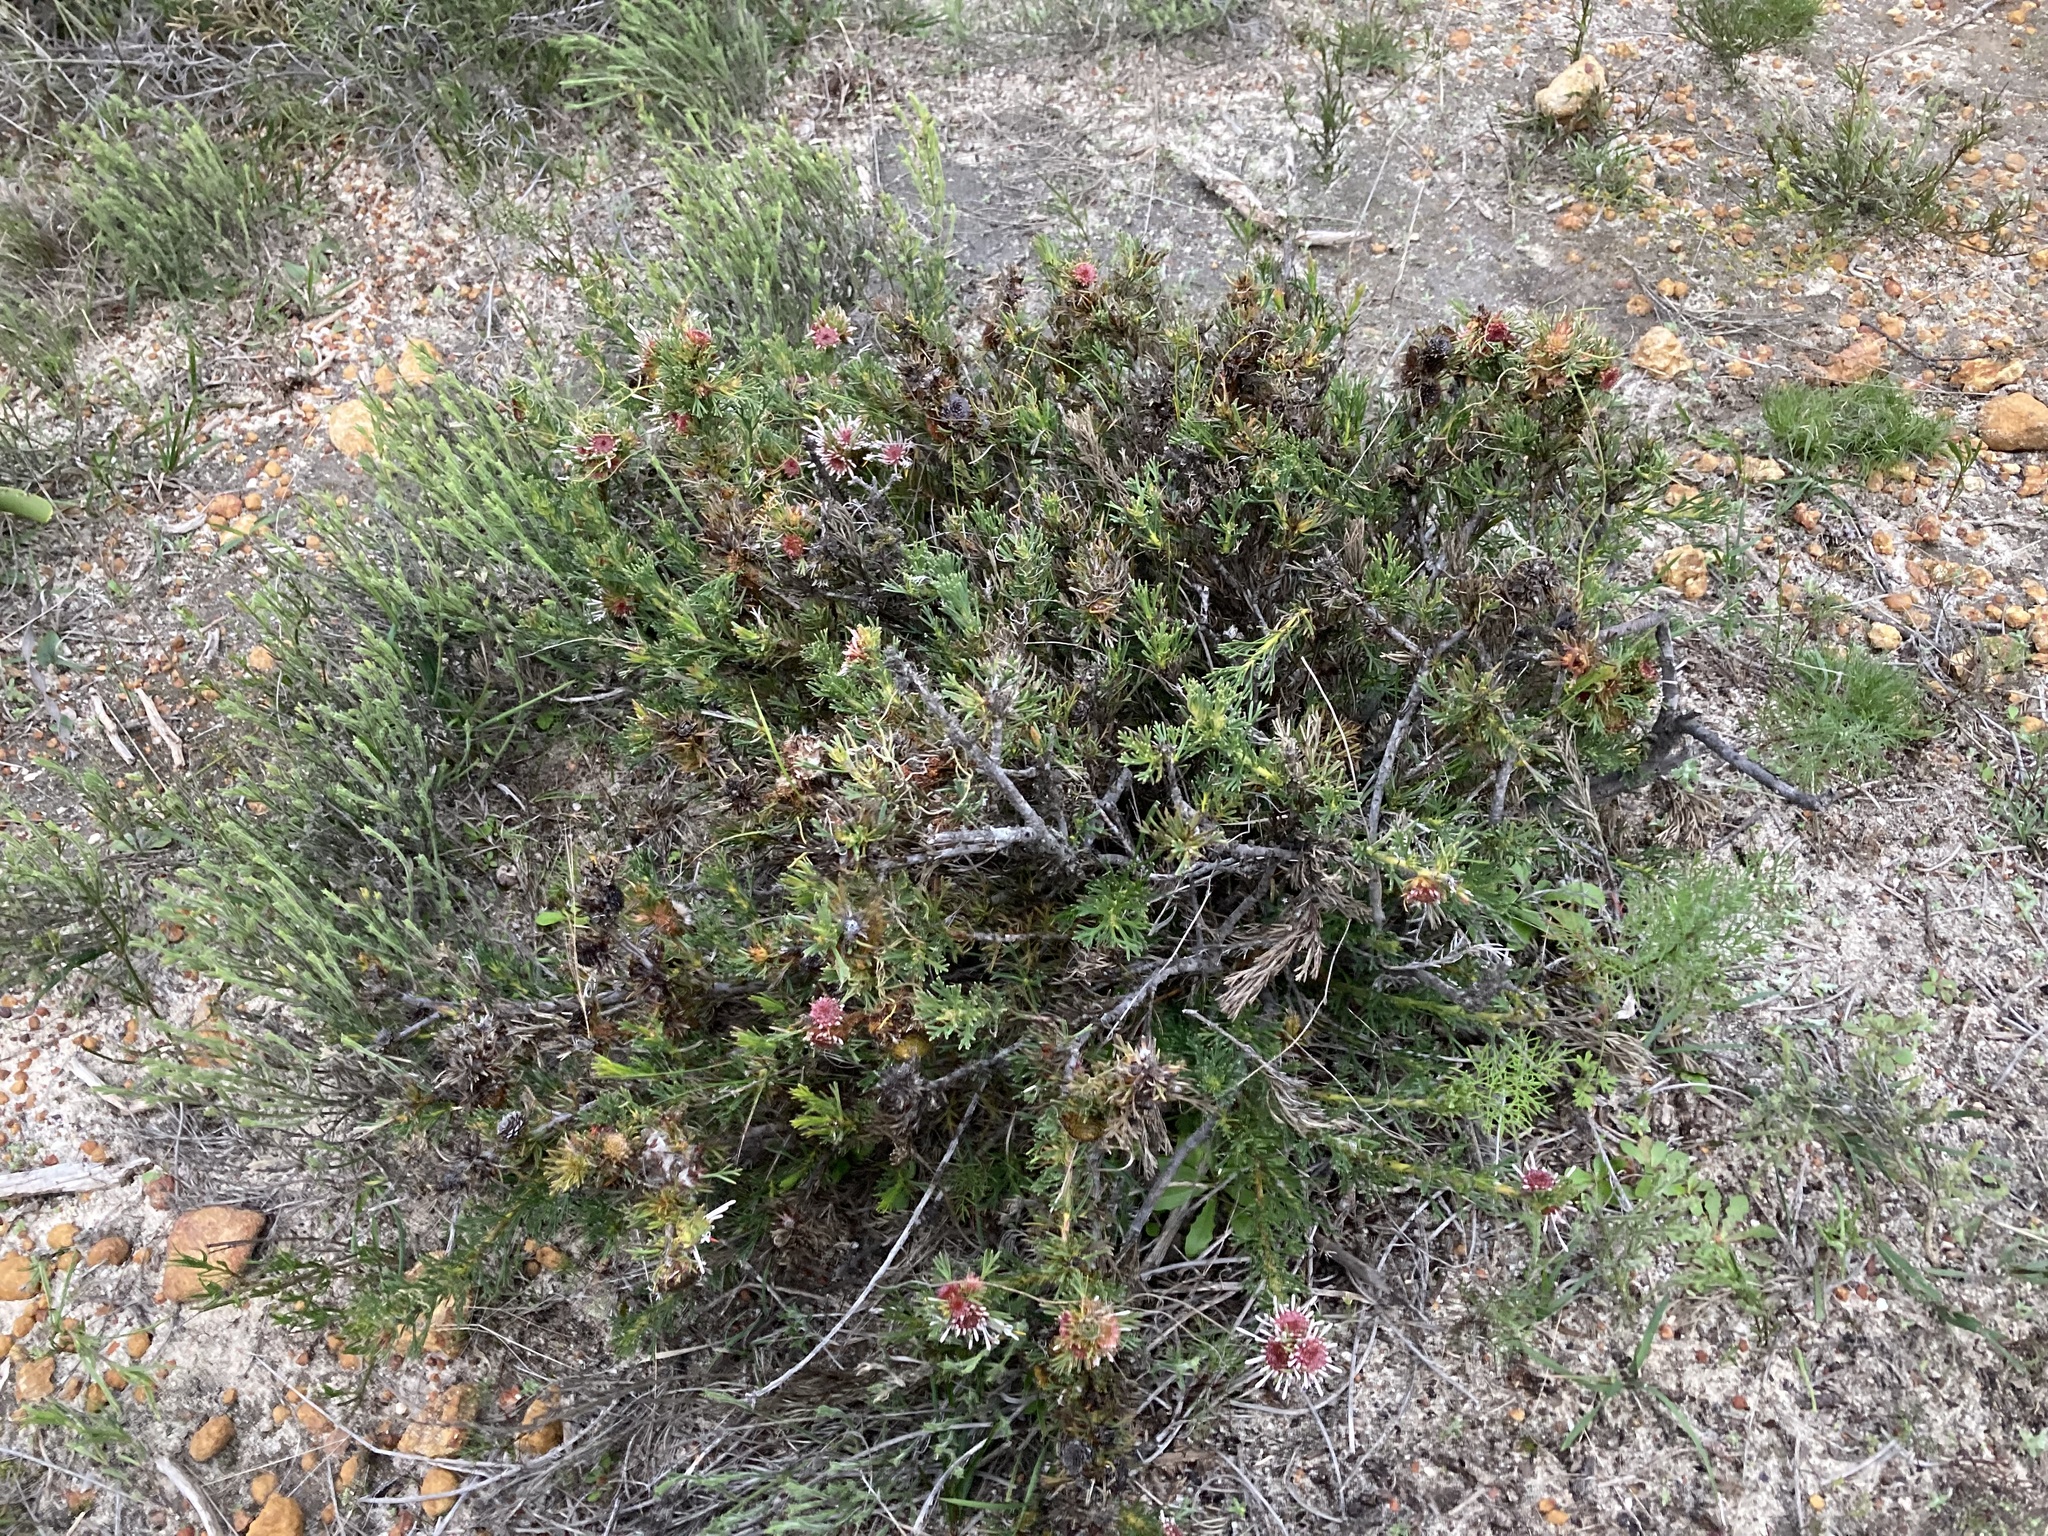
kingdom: Plantae
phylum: Tracheophyta
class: Magnoliopsida
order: Proteales
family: Proteaceae
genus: Isopogon
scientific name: Isopogon asper
